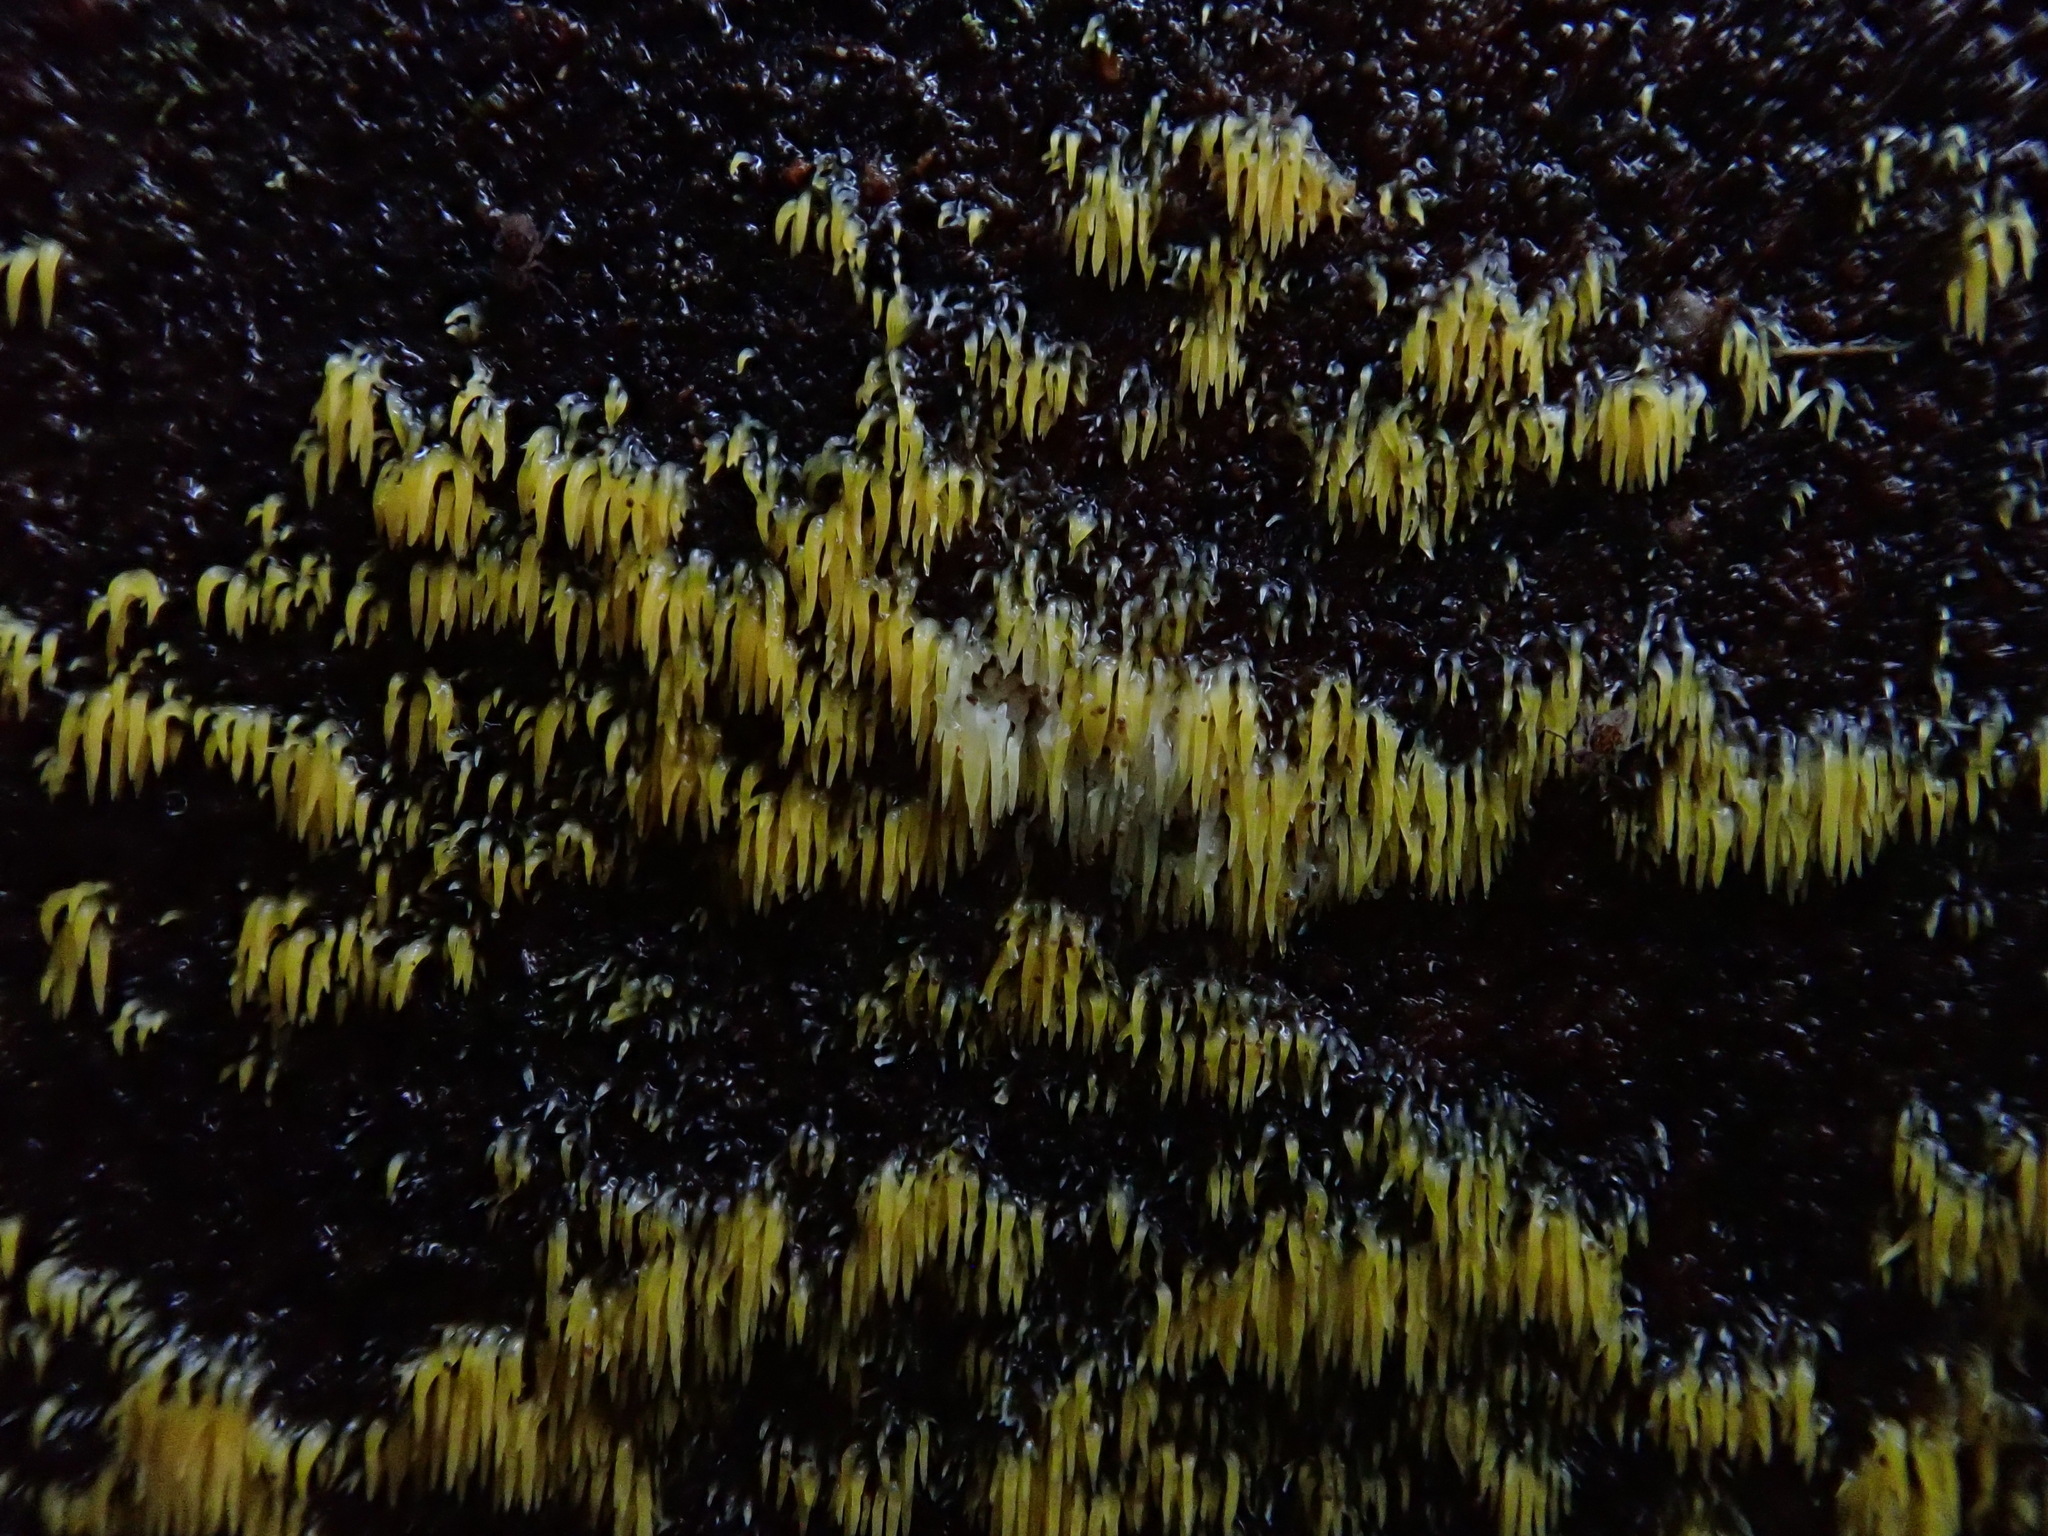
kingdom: Fungi
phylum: Basidiomycota
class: Agaricomycetes
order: Agaricales
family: Clavariaceae
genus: Mucronella
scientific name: Mucronella flava
